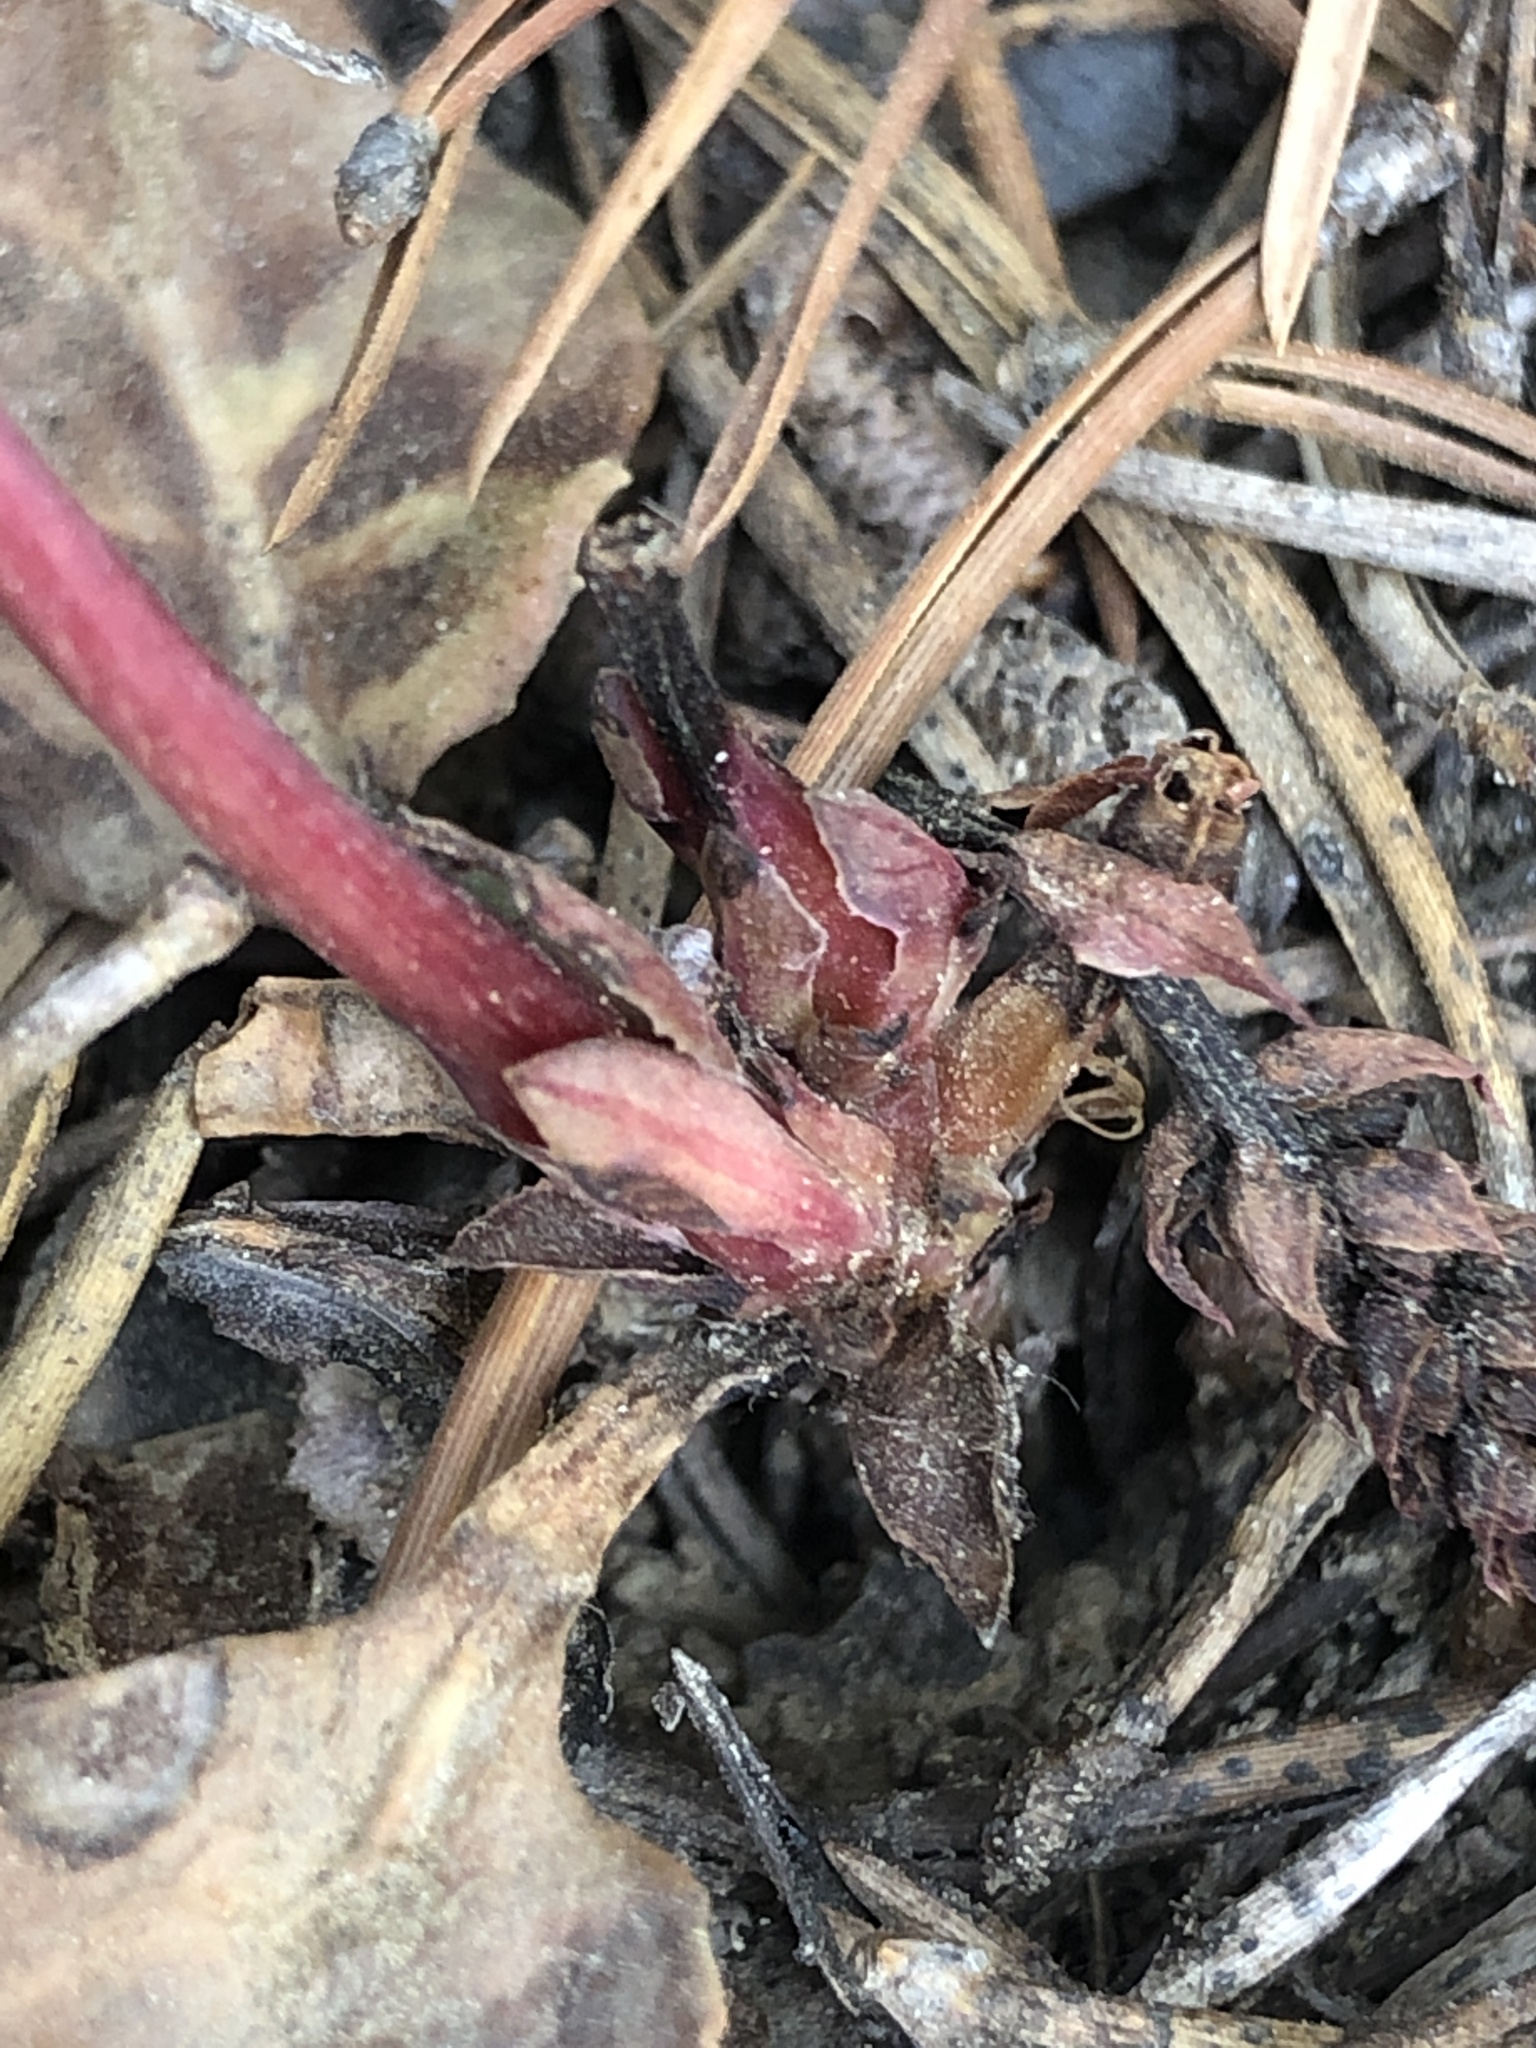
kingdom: Plantae
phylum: Tracheophyta
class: Magnoliopsida
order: Ericales
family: Ericaceae
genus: Pyrola
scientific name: Pyrola aphylla
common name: Leafless wintergreen
